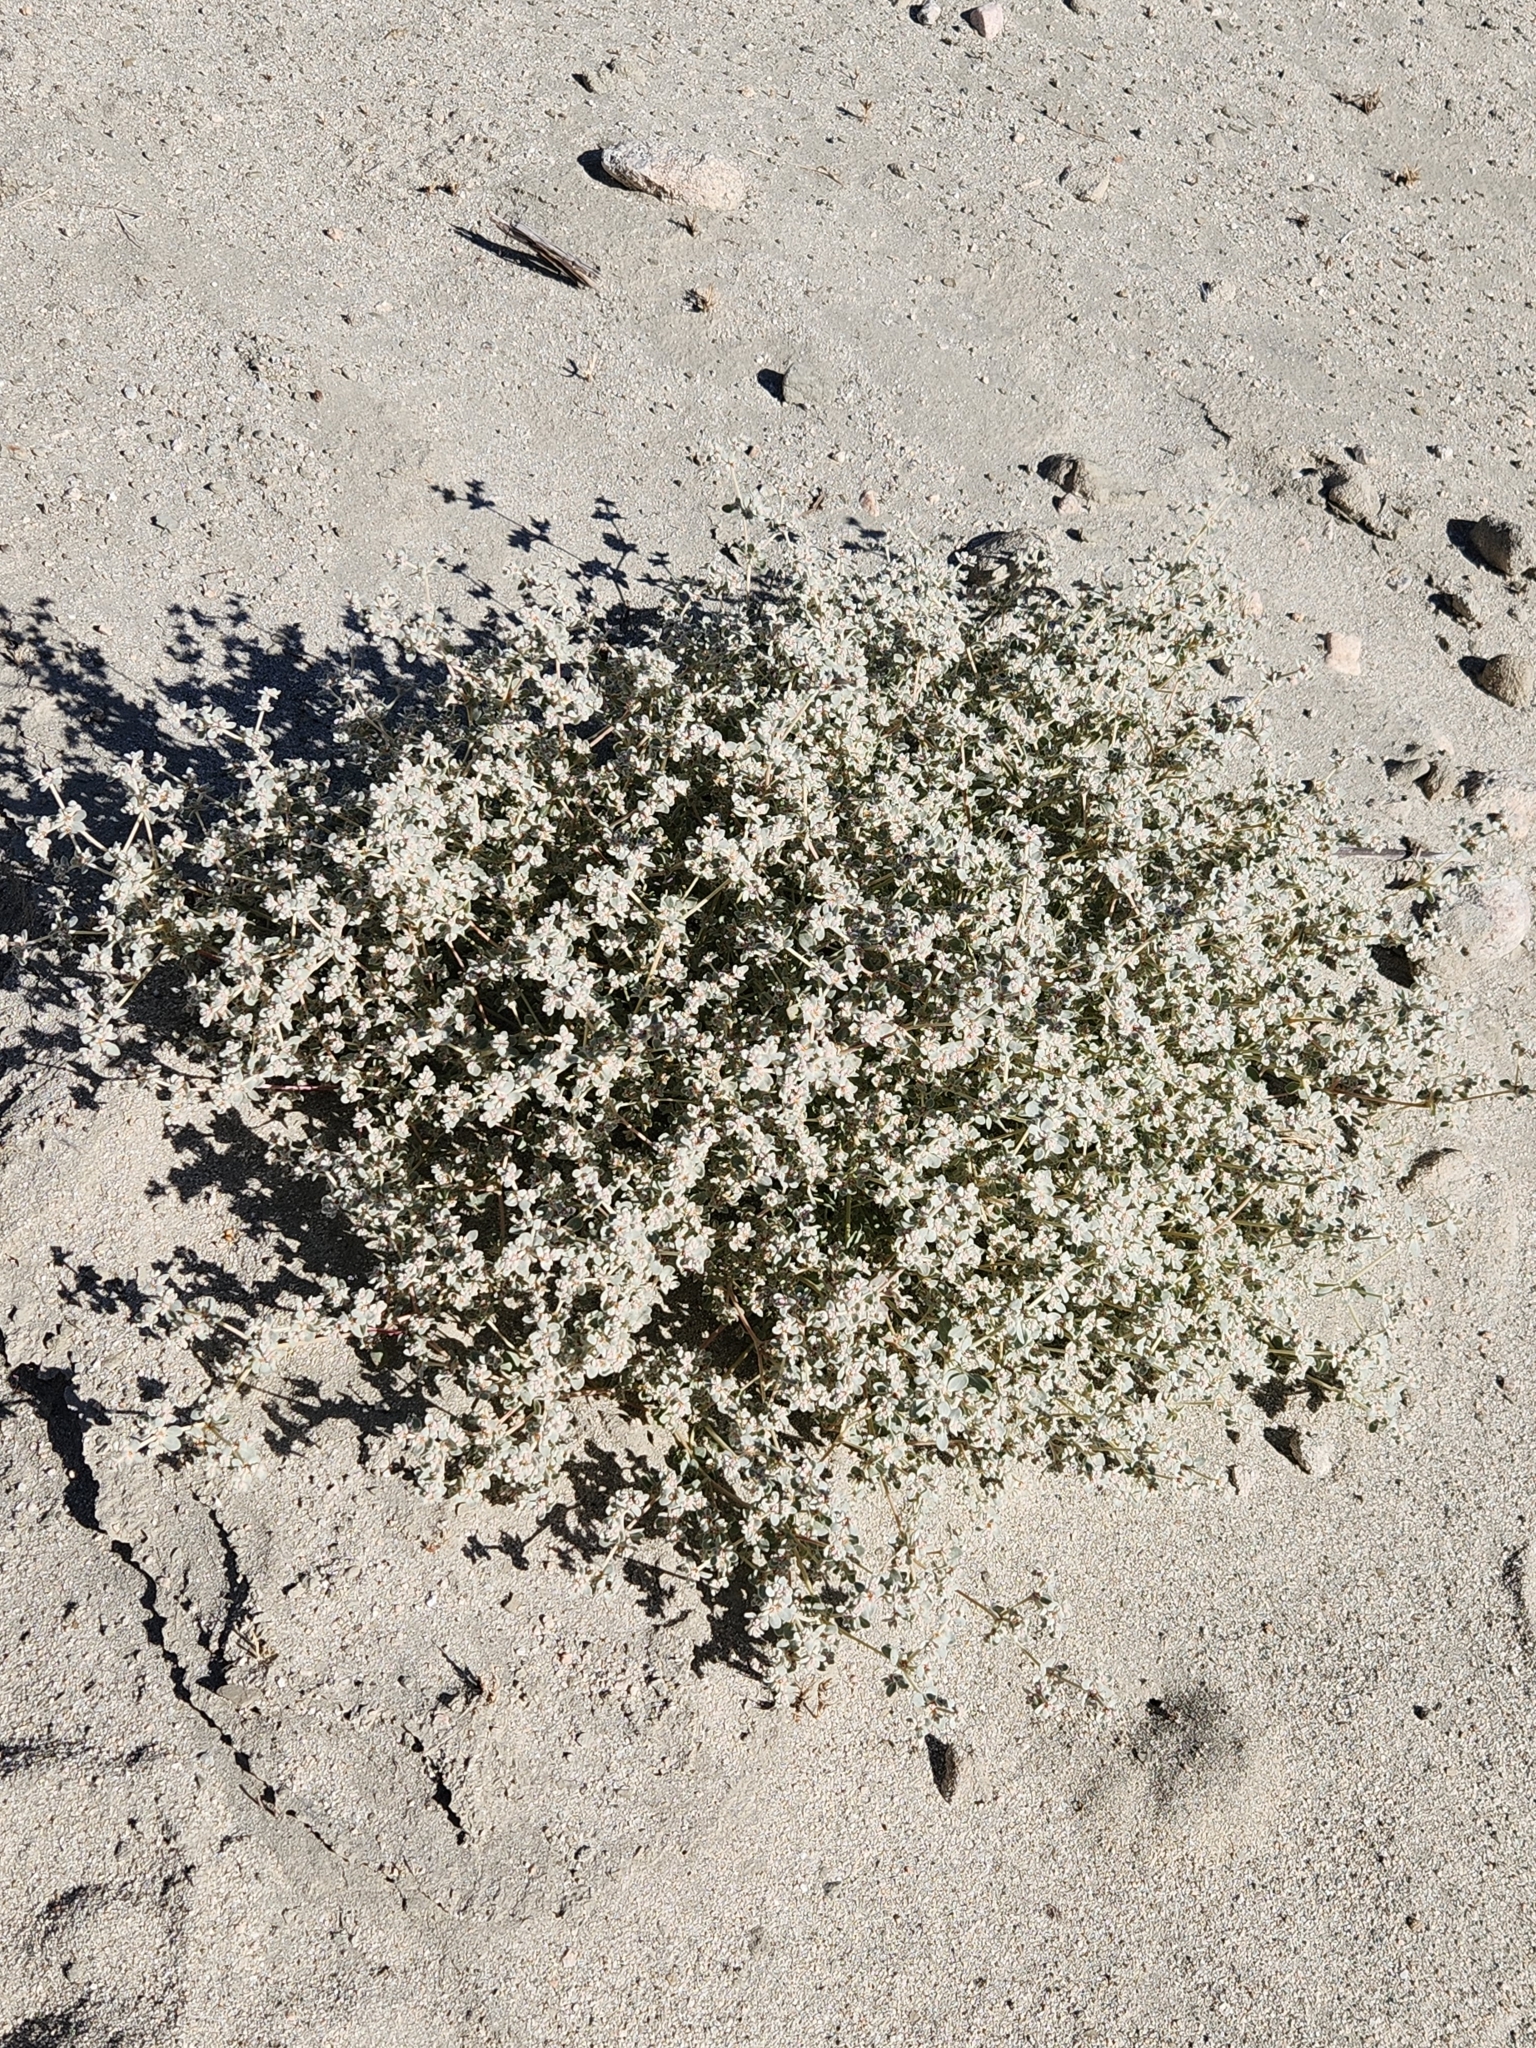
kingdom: Plantae
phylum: Tracheophyta
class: Magnoliopsida
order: Caryophyllales
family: Amaranthaceae
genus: Tidestromia
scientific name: Tidestromia suffruticosa
